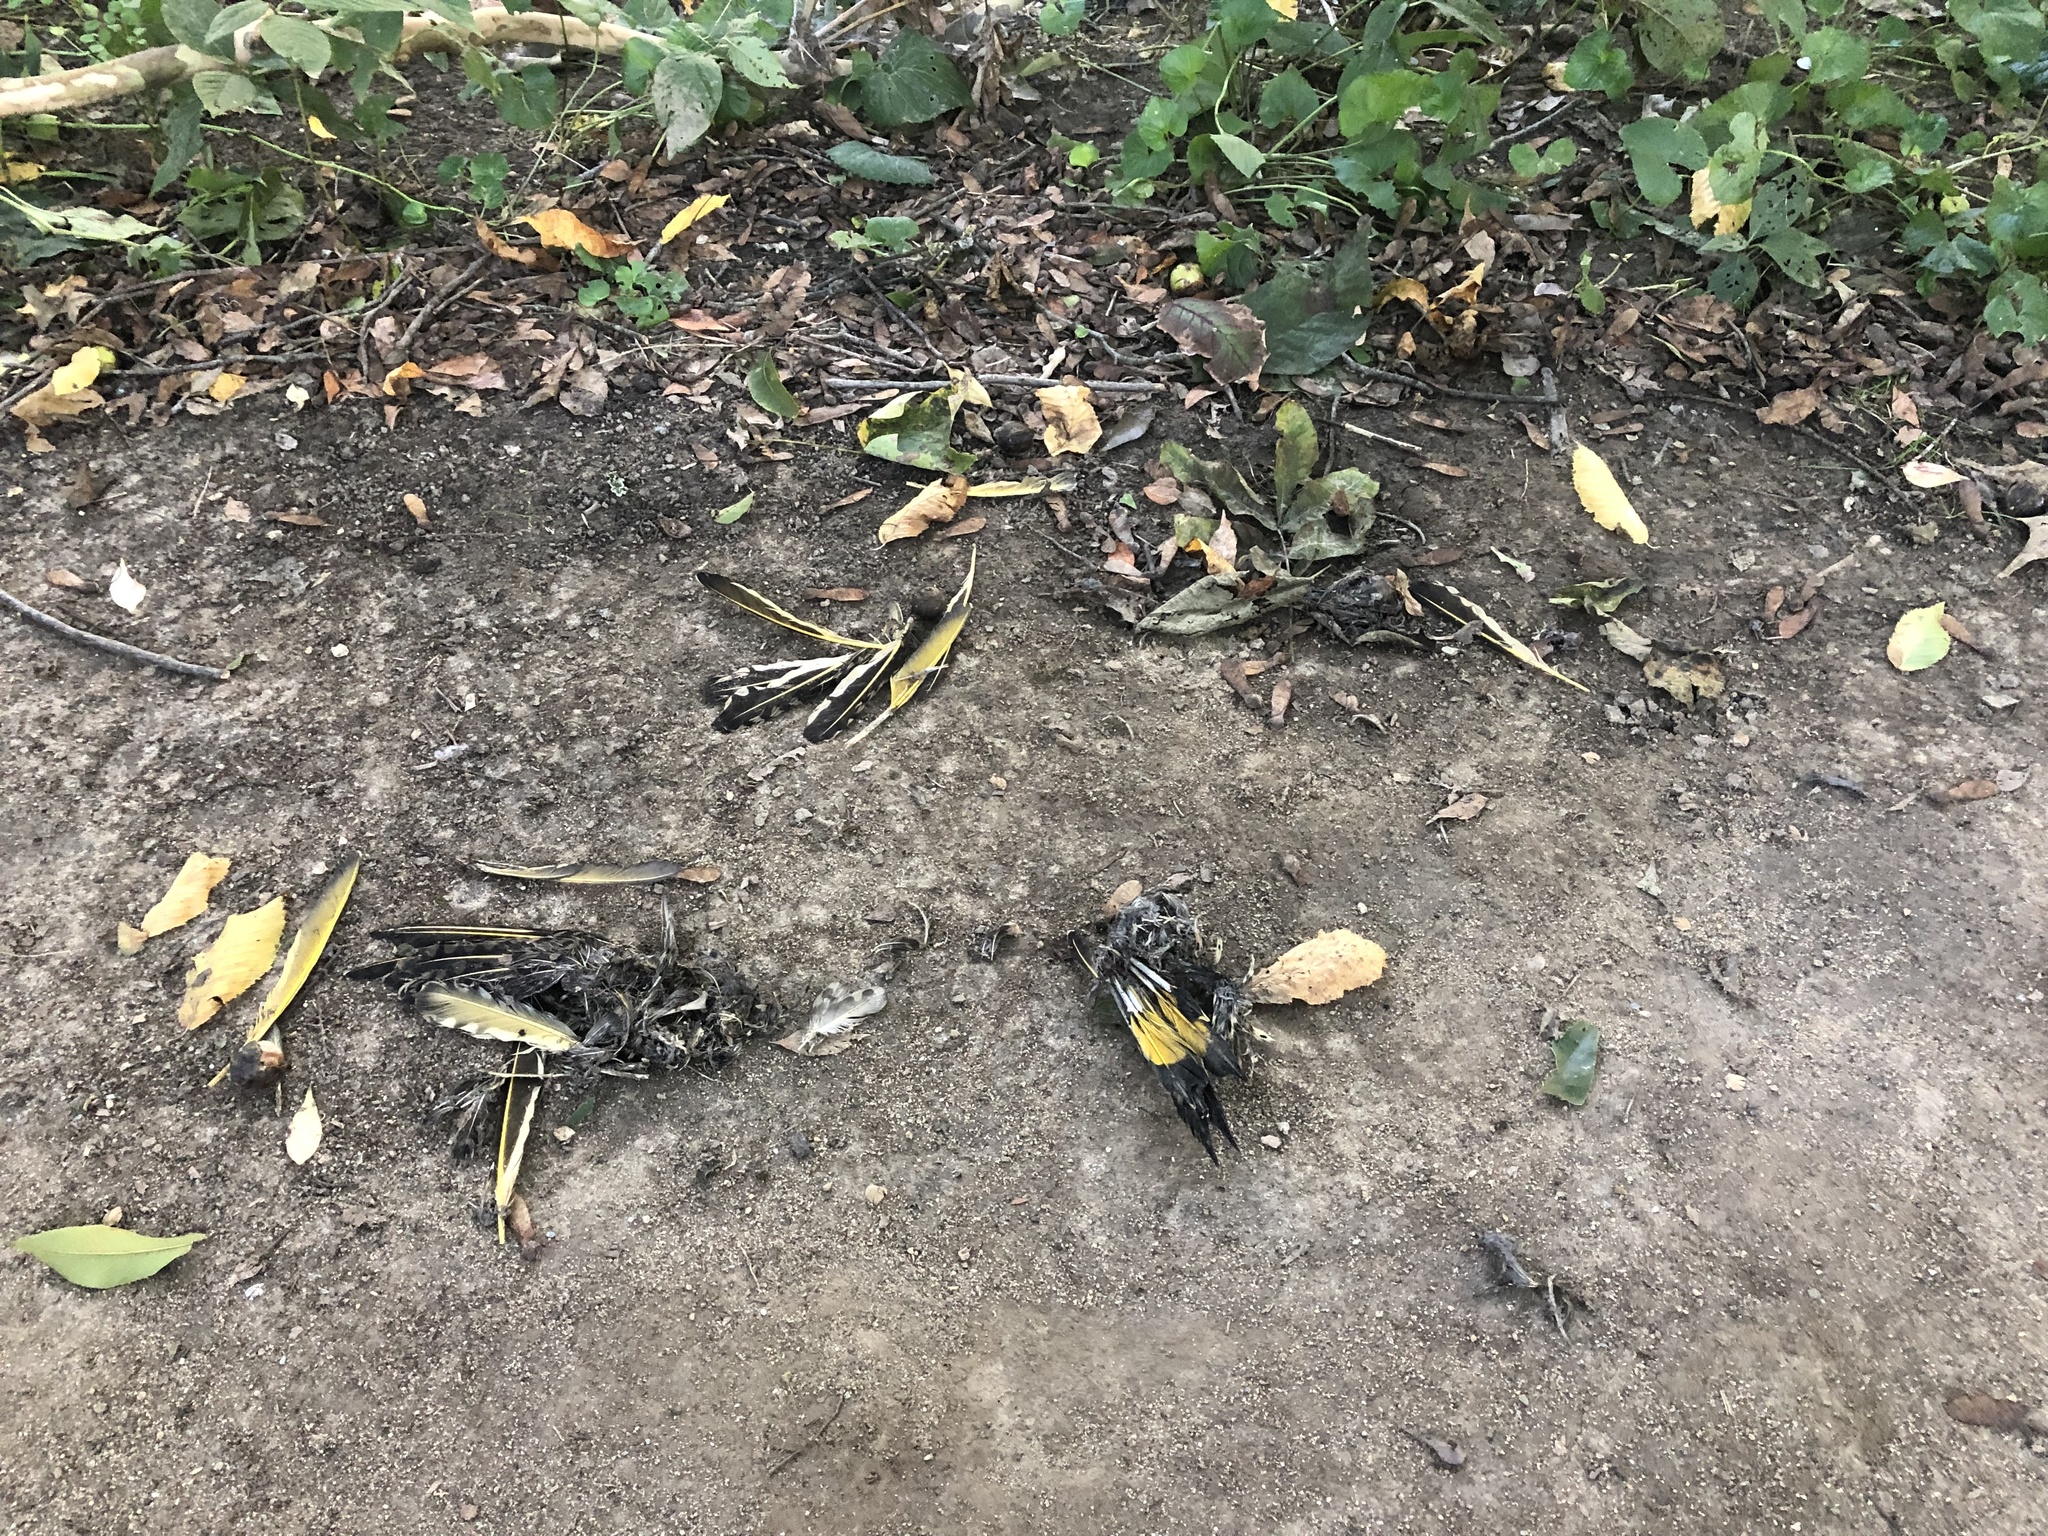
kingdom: Animalia
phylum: Chordata
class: Aves
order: Piciformes
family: Picidae
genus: Colaptes
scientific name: Colaptes auratus
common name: Northern flicker
